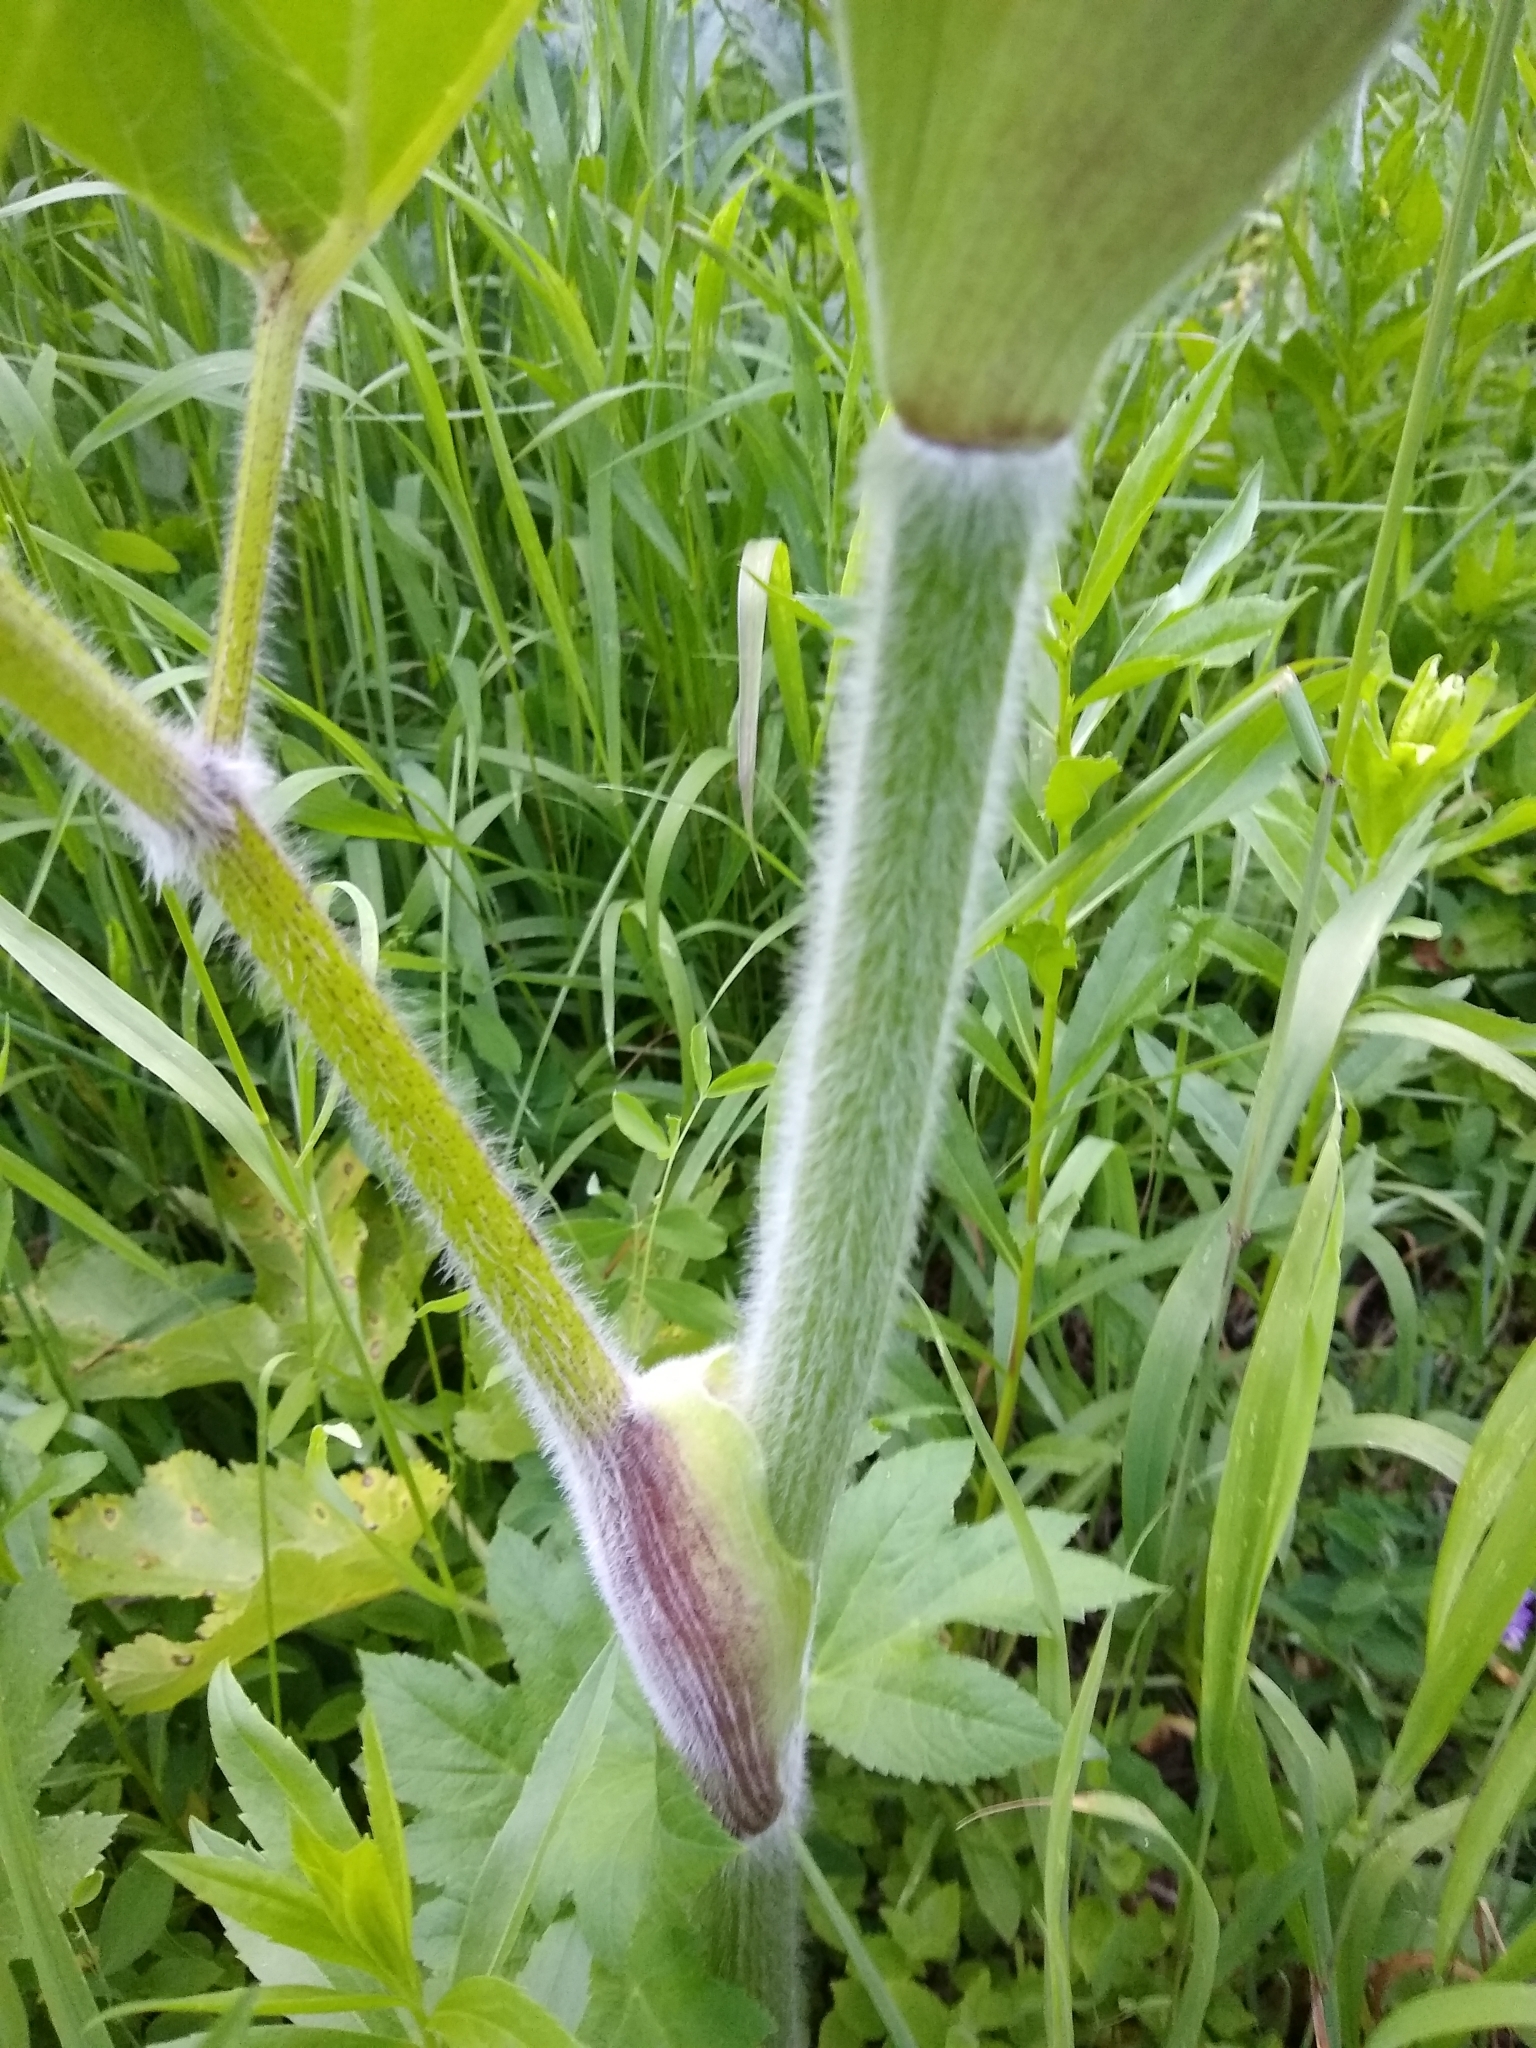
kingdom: Plantae
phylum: Tracheophyta
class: Magnoliopsida
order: Apiales
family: Apiaceae
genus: Heracleum
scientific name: Heracleum maximum
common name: American cow parsnip
